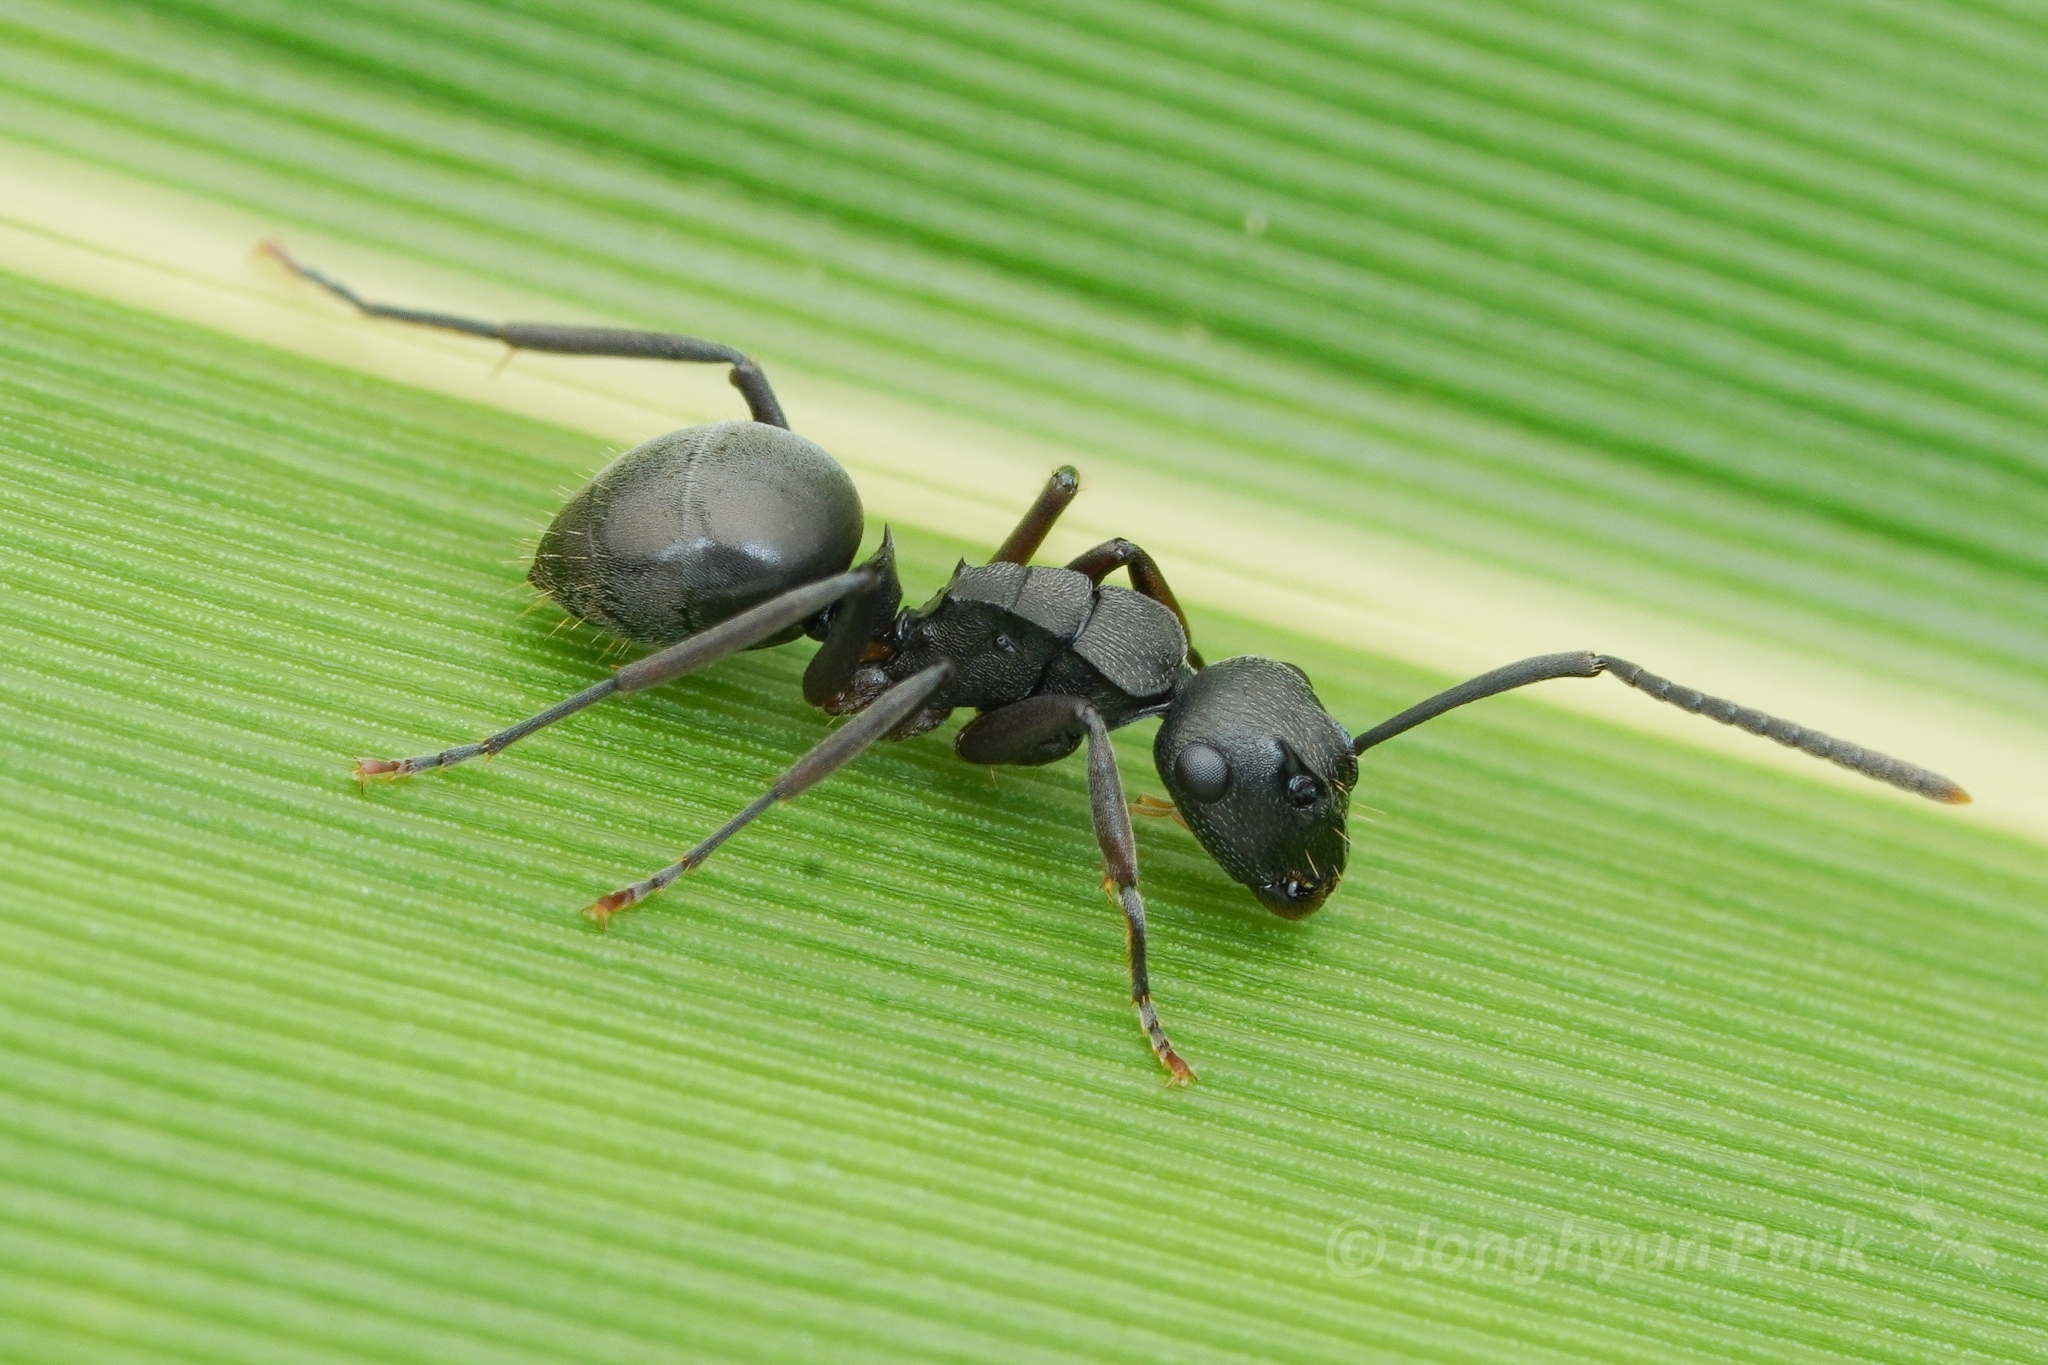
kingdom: Animalia
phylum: Arthropoda
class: Insecta
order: Hymenoptera
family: Formicidae
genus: Polyrhachis
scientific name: Polyrhachis halidayi
